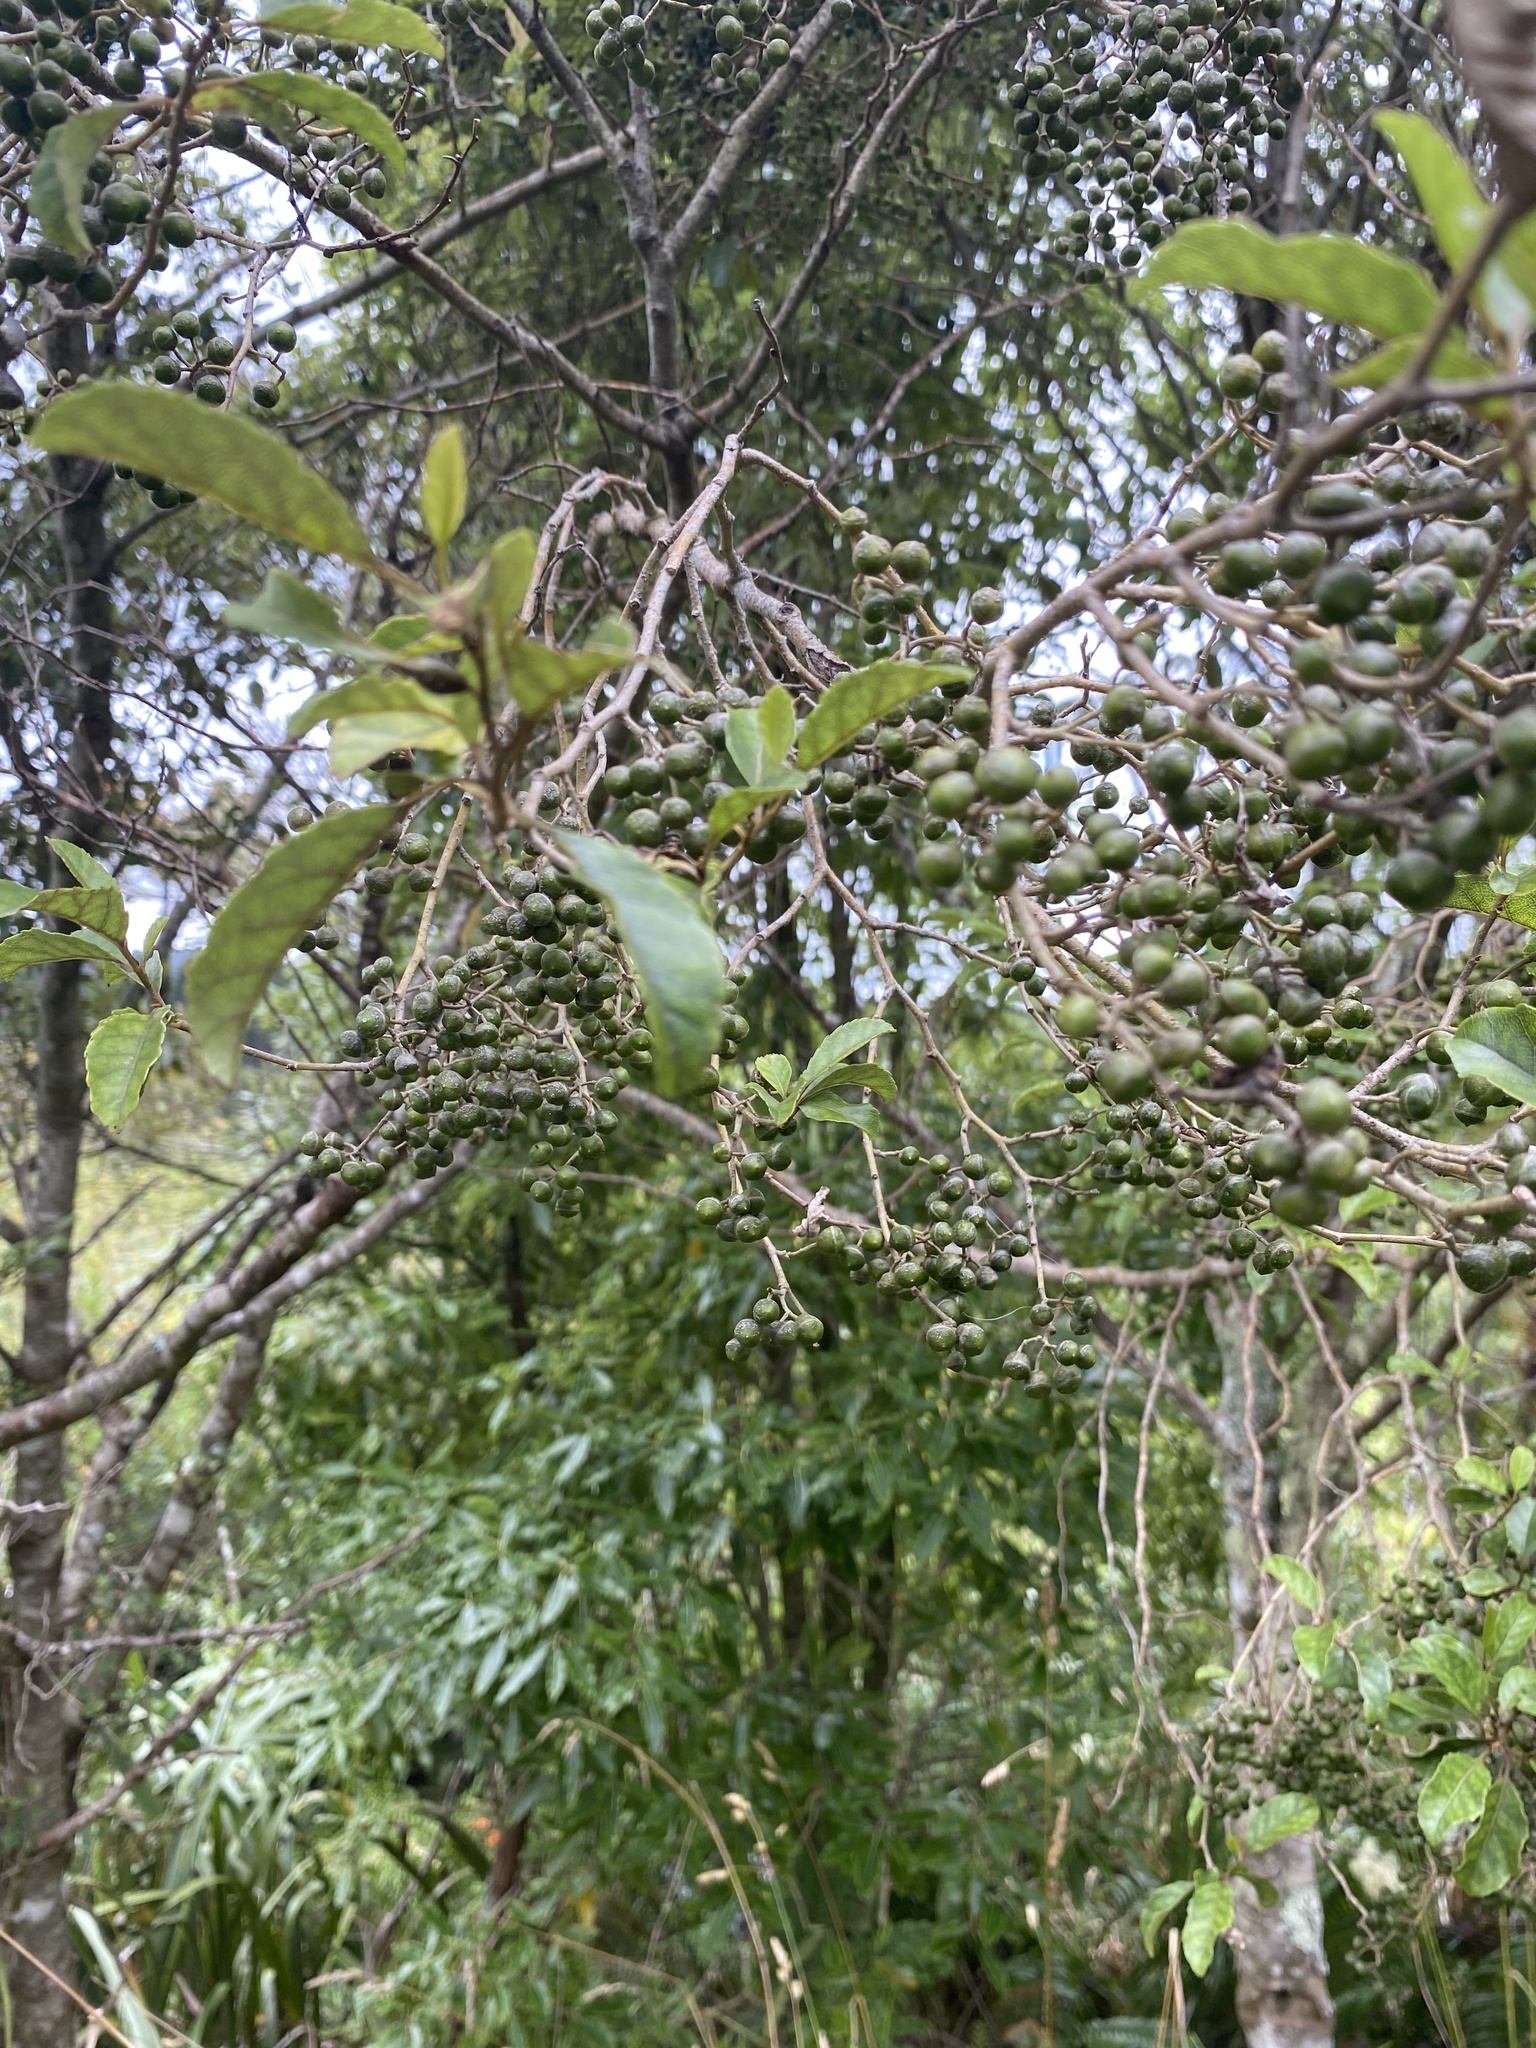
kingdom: Plantae
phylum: Tracheophyta
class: Magnoliopsida
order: Asterales
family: Rousseaceae
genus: Carpodetus
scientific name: Carpodetus serratus
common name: White mapau
